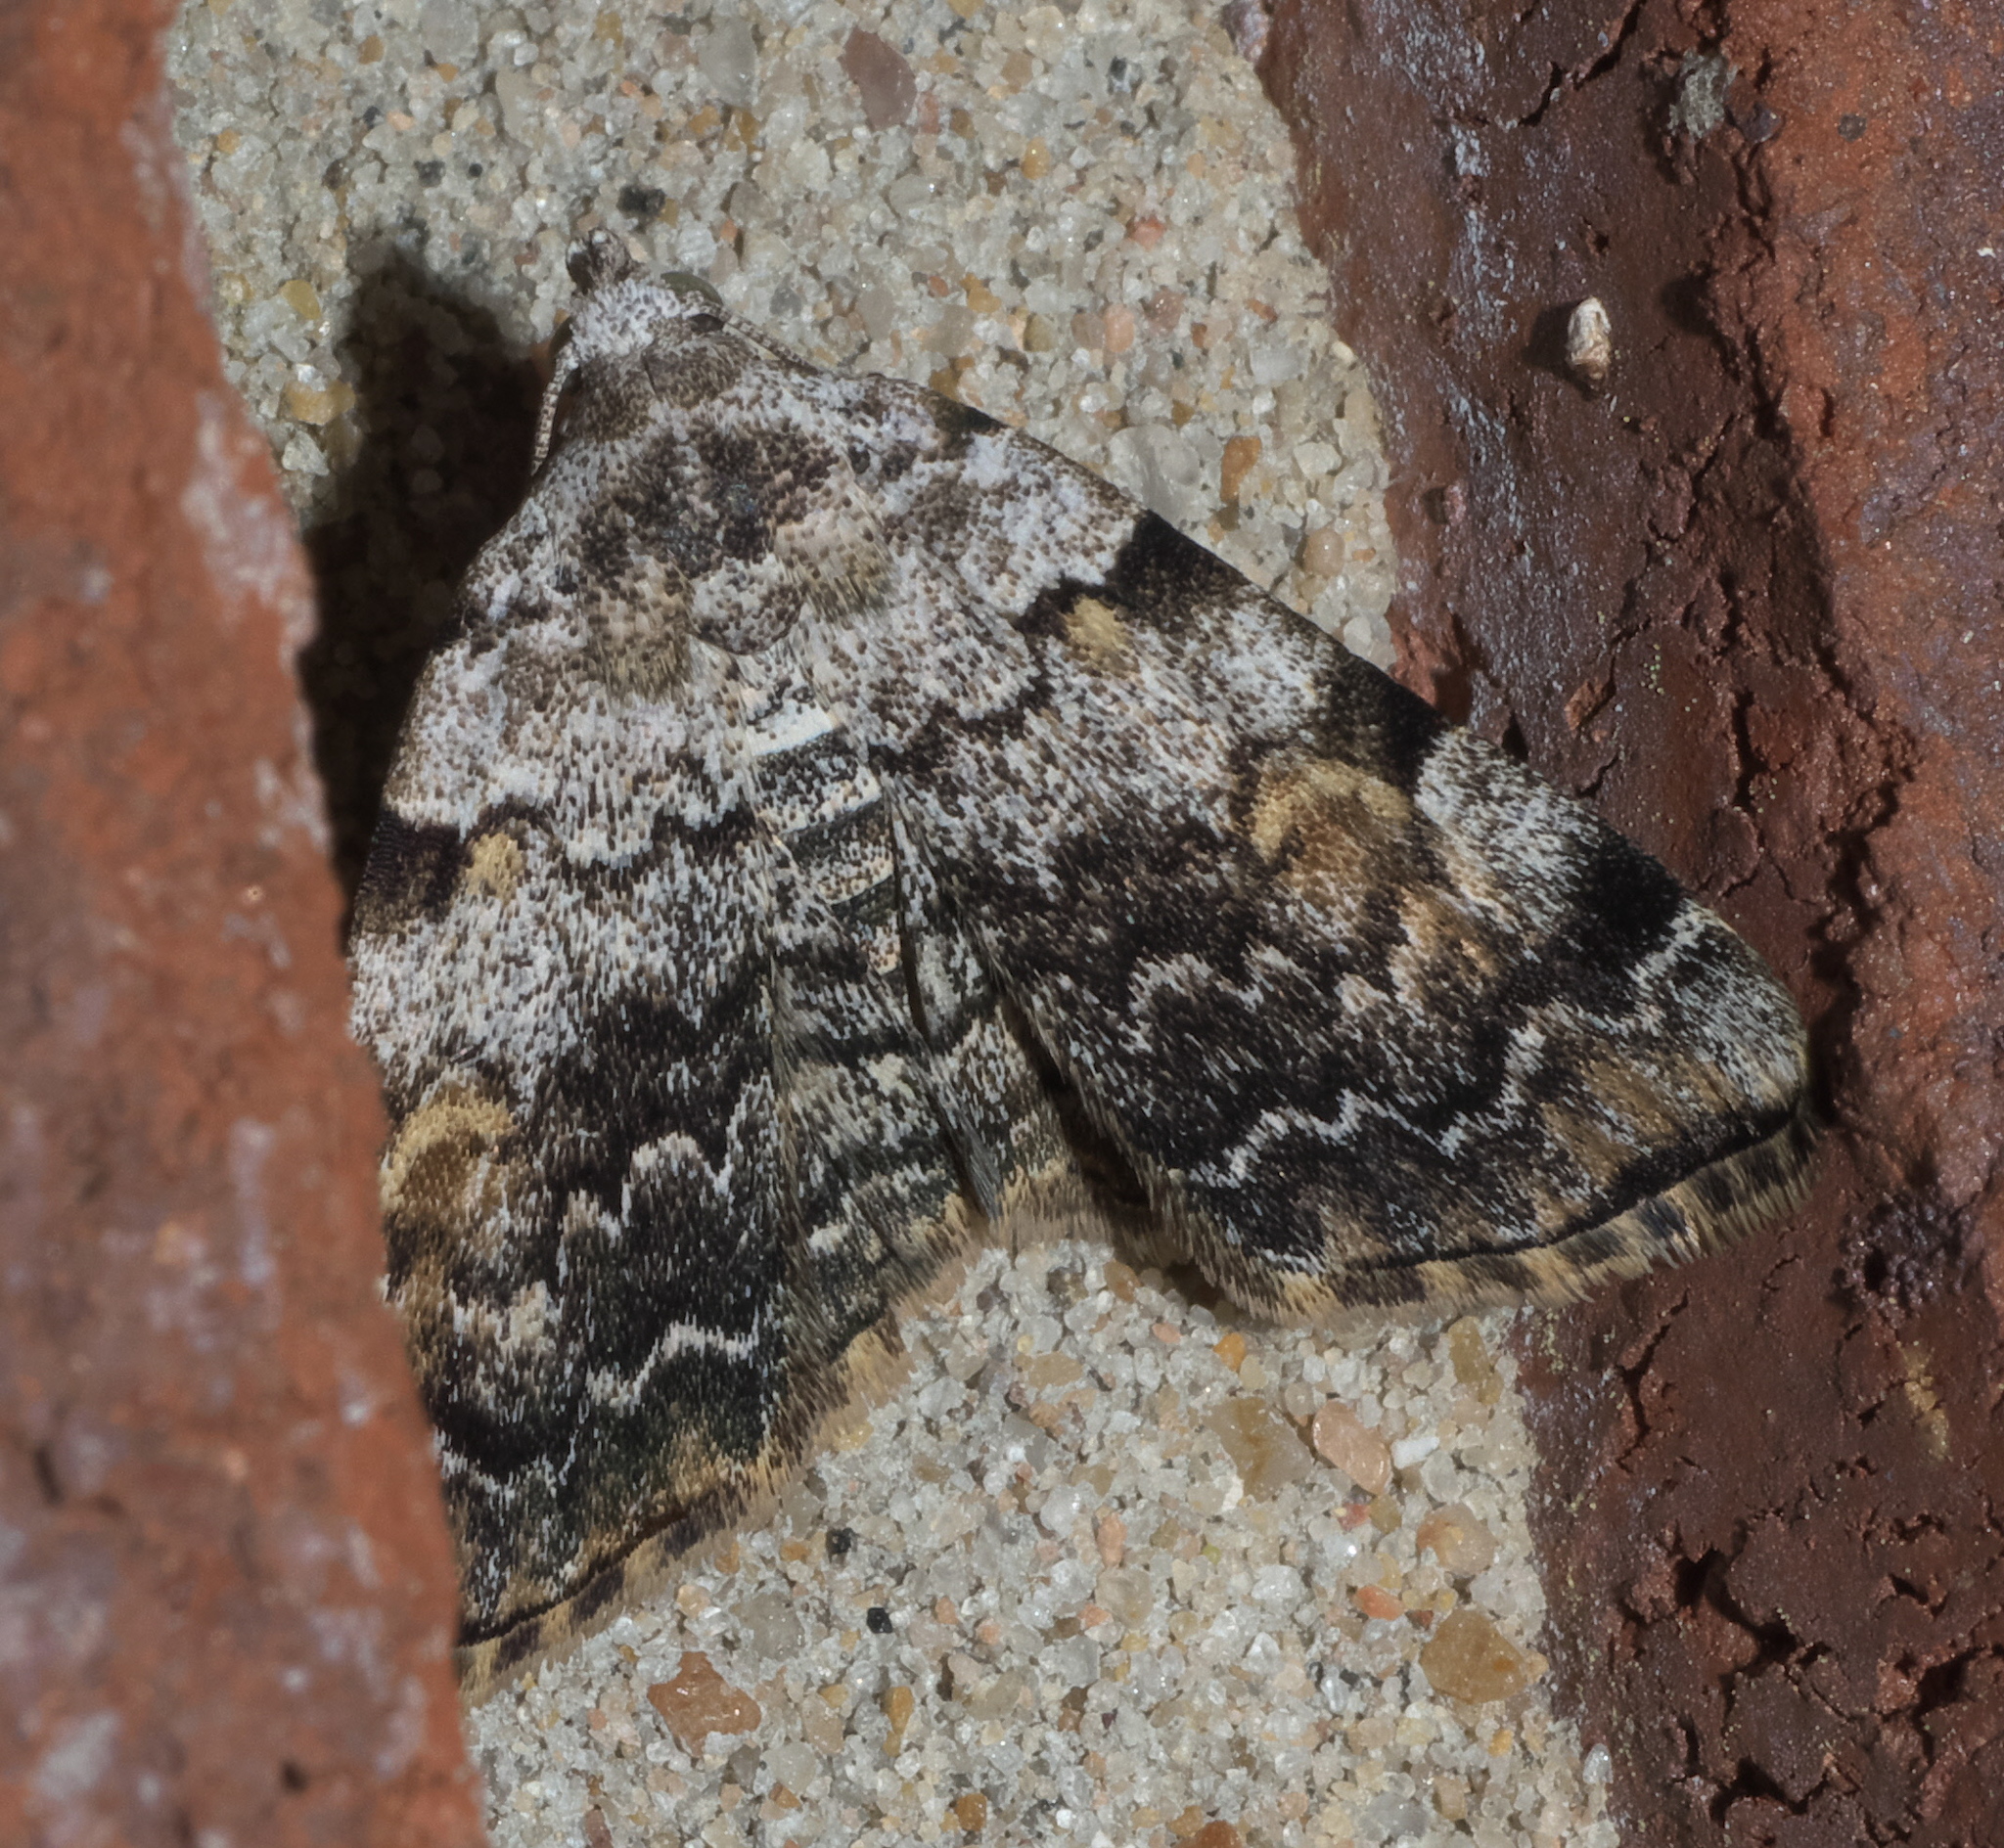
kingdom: Animalia
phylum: Arthropoda
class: Insecta
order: Lepidoptera
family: Erebidae
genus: Idia
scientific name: Idia americalis
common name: American idia moth
